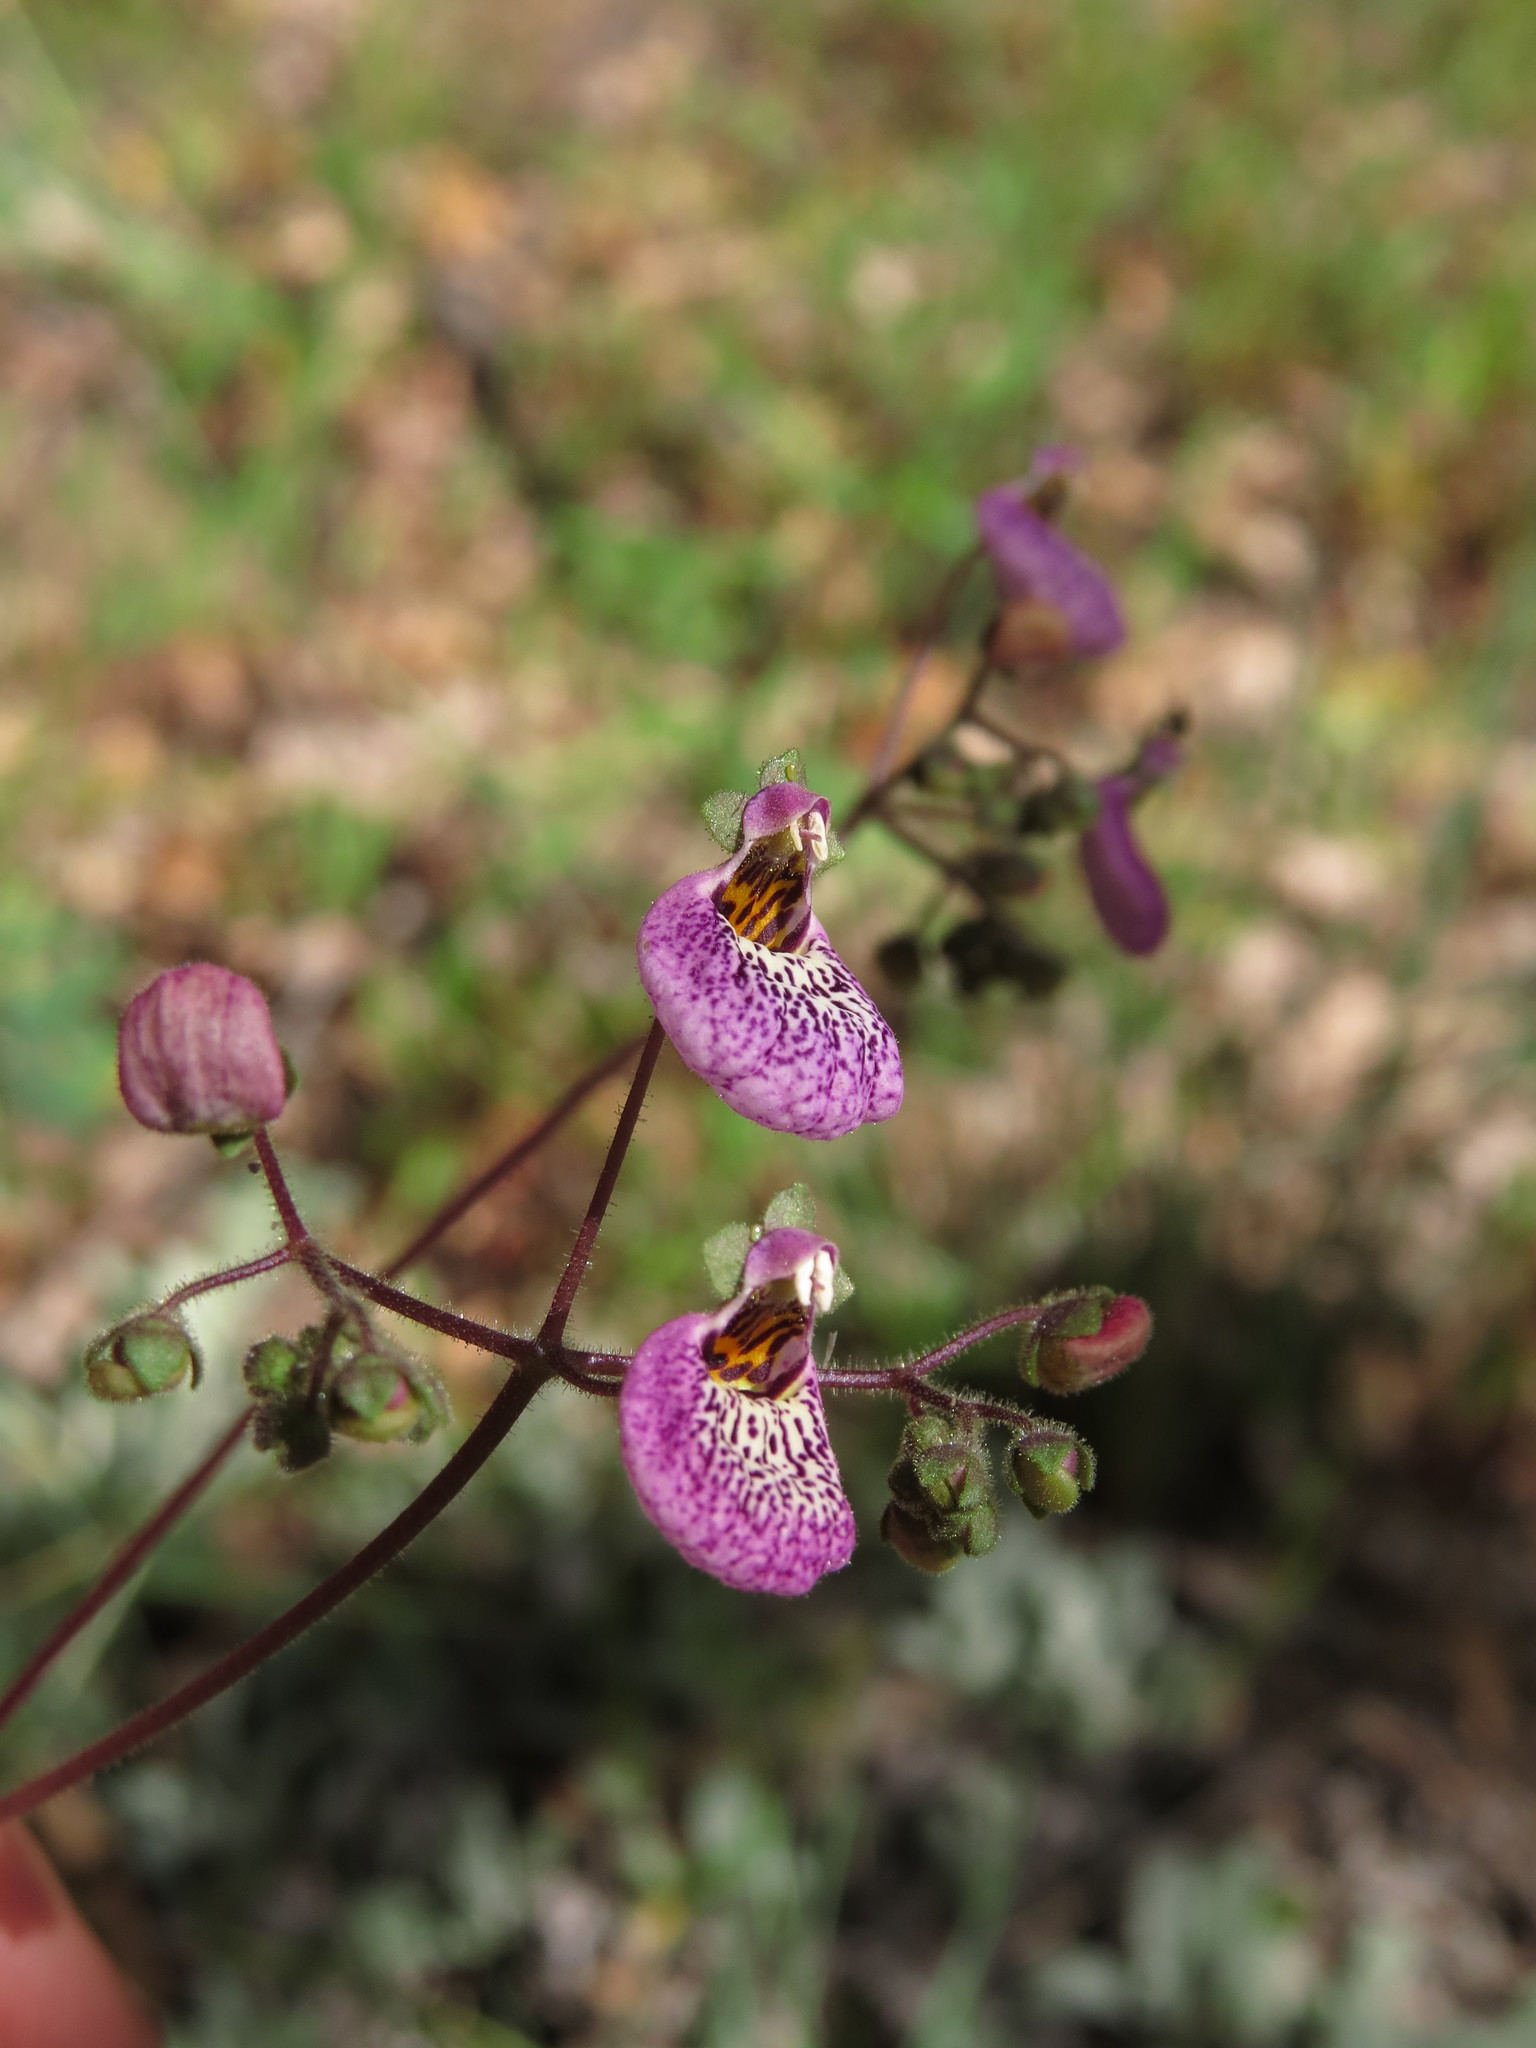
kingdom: Plantae
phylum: Tracheophyta
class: Magnoliopsida
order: Lamiales
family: Calceolariaceae
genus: Calceolaria
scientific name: Calceolaria cana
